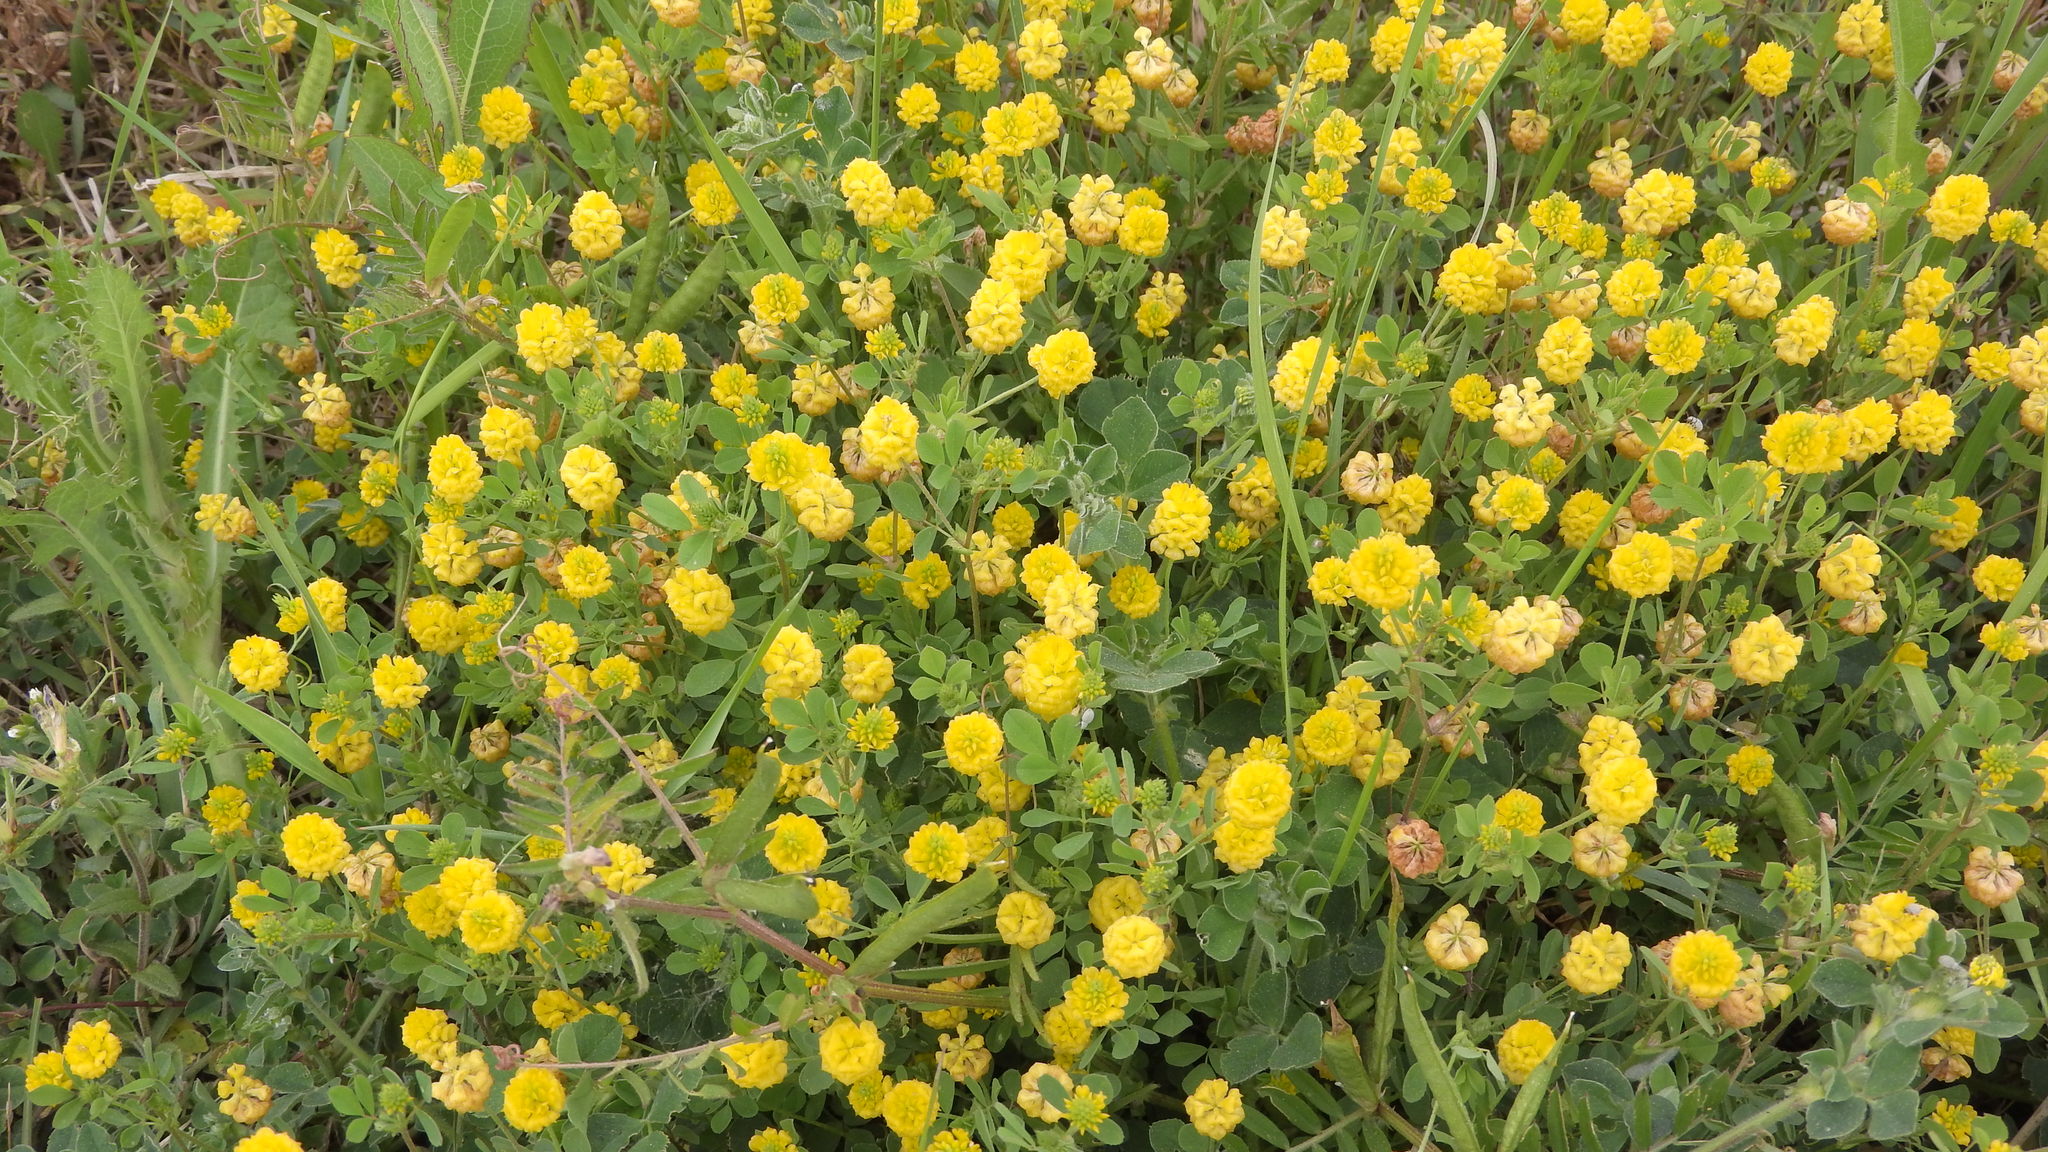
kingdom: Plantae
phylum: Tracheophyta
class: Magnoliopsida
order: Fabales
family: Fabaceae
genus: Trifolium
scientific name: Trifolium campestre
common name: Field clover
